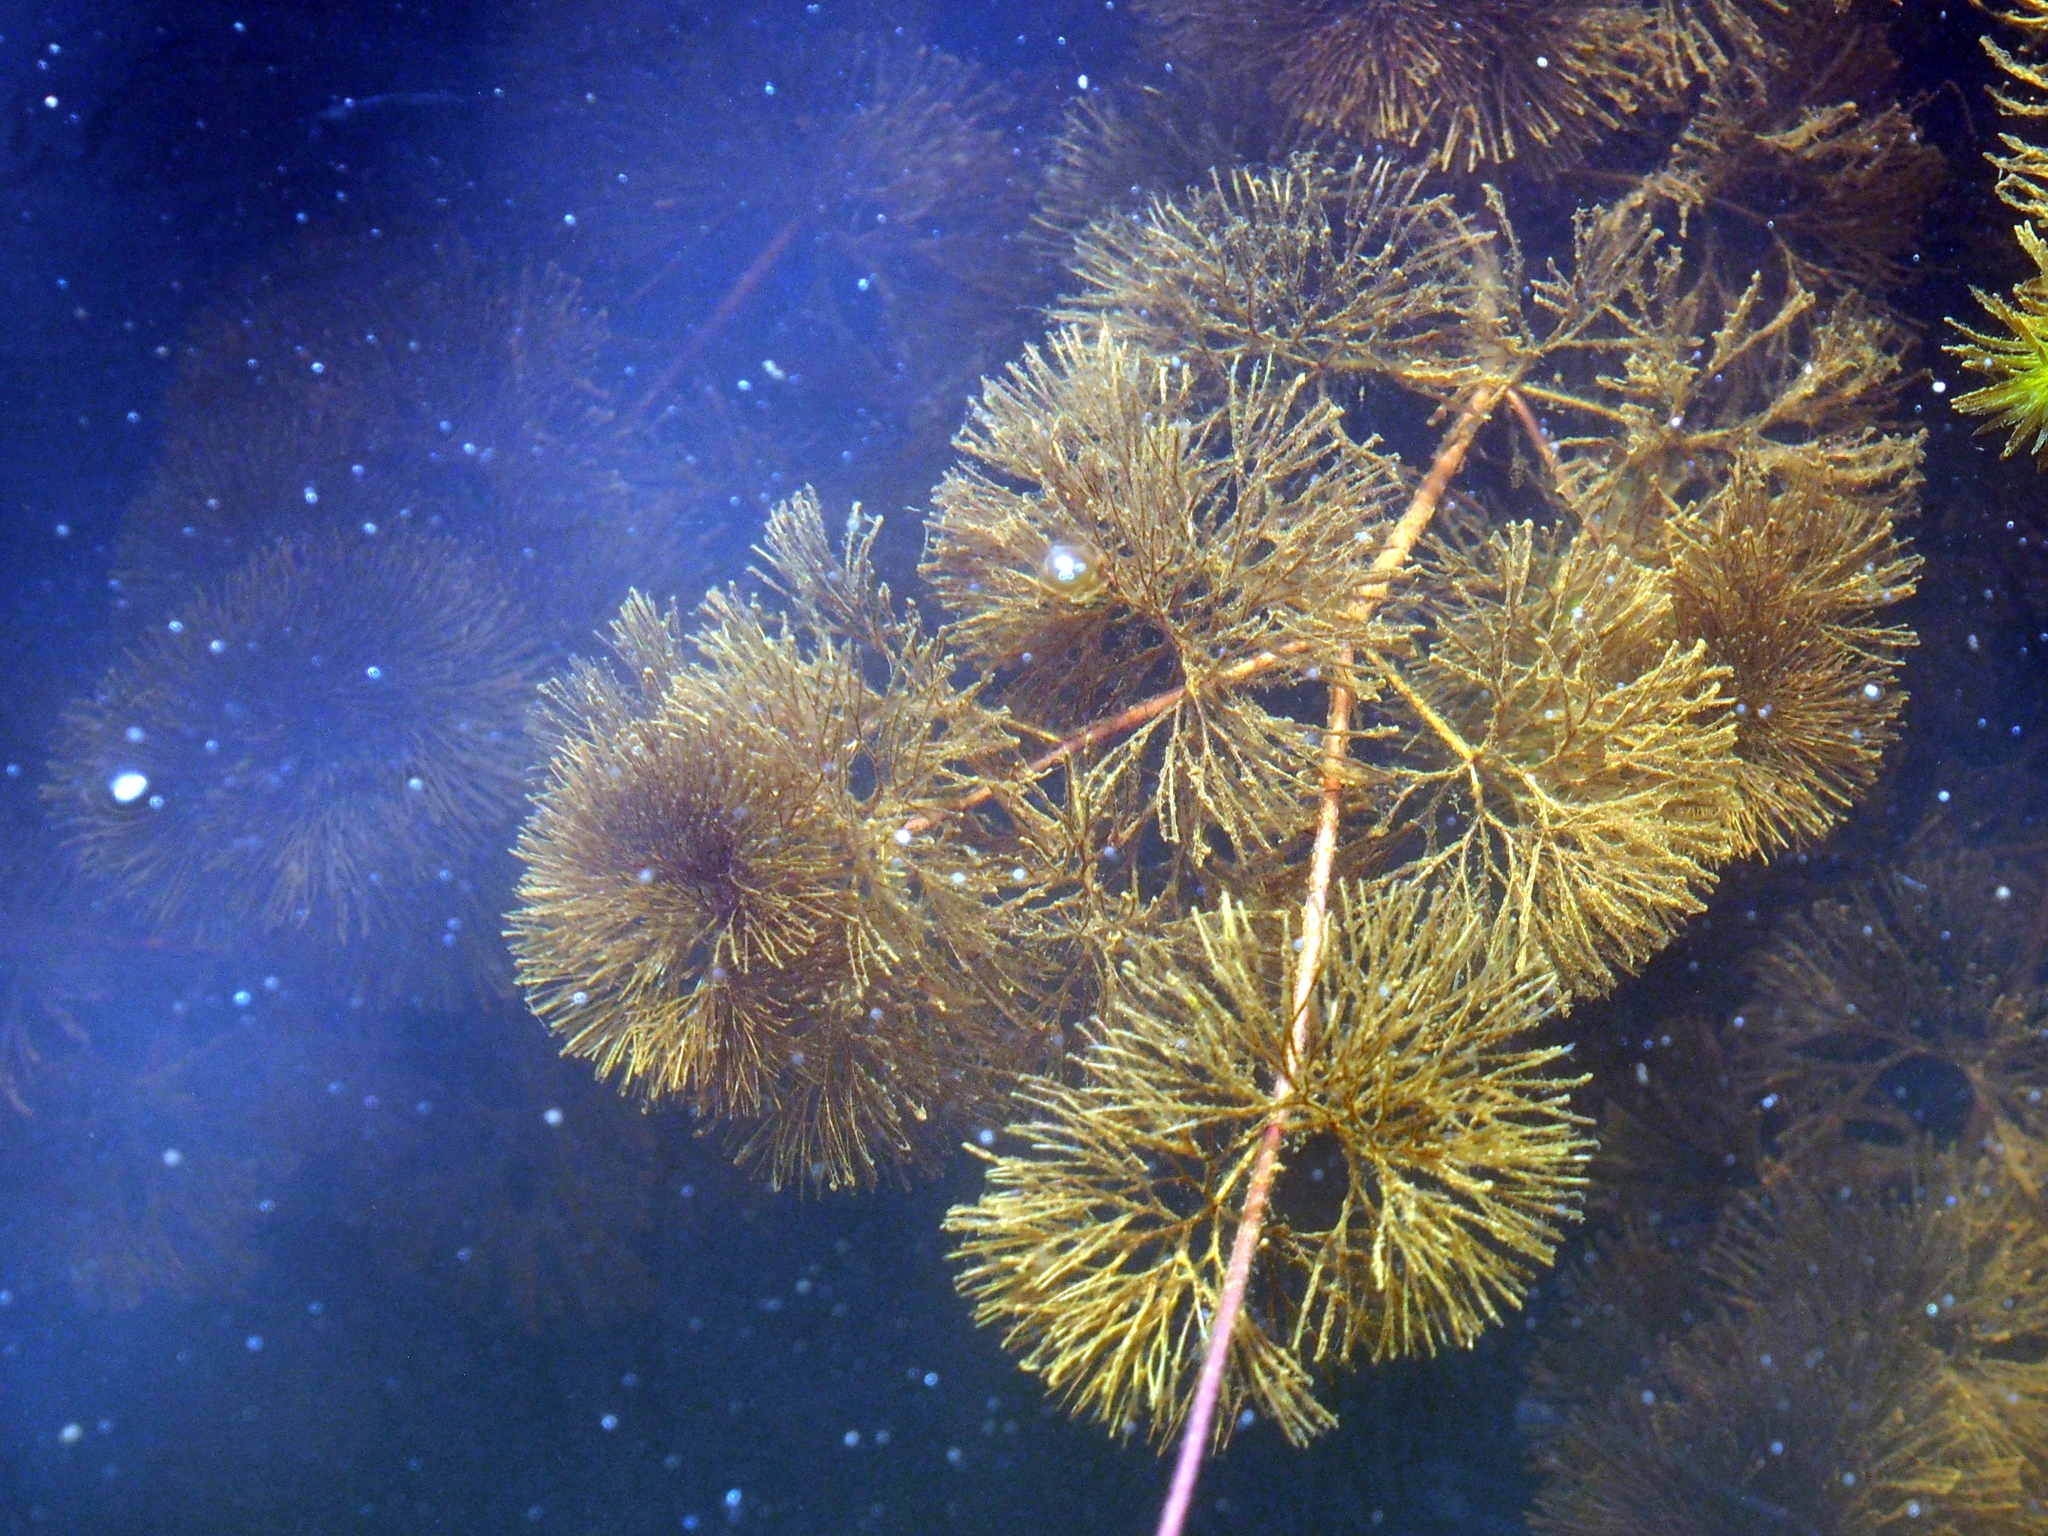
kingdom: Plantae
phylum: Tracheophyta
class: Magnoliopsida
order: Nymphaeales
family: Cabombaceae
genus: Cabomba
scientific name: Cabomba palaeformis
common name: Fish-grass
